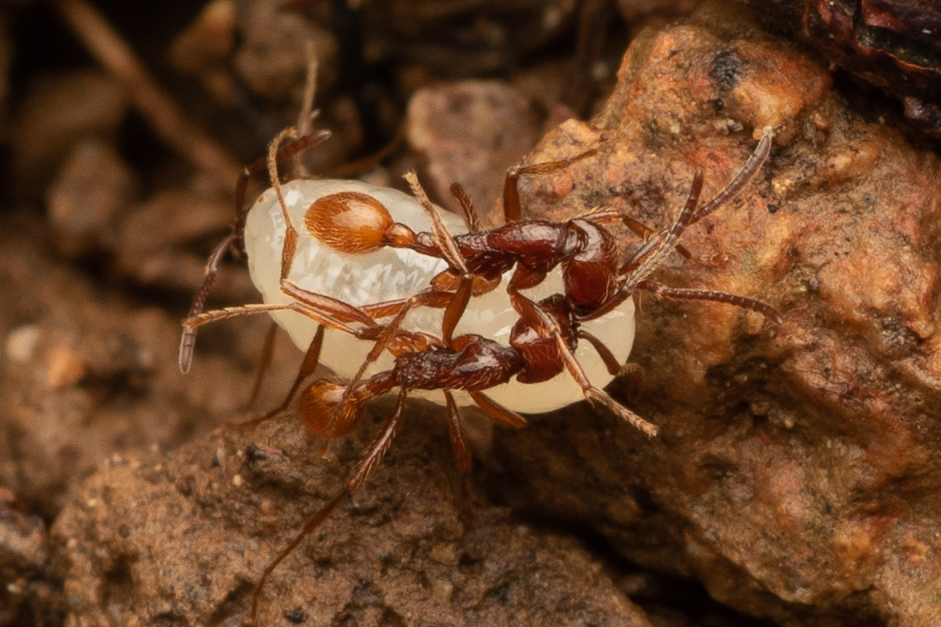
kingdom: Animalia
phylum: Arthropoda
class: Insecta
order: Hymenoptera
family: Formicidae
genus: Neivamyrmex
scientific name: Neivamyrmex impudens
